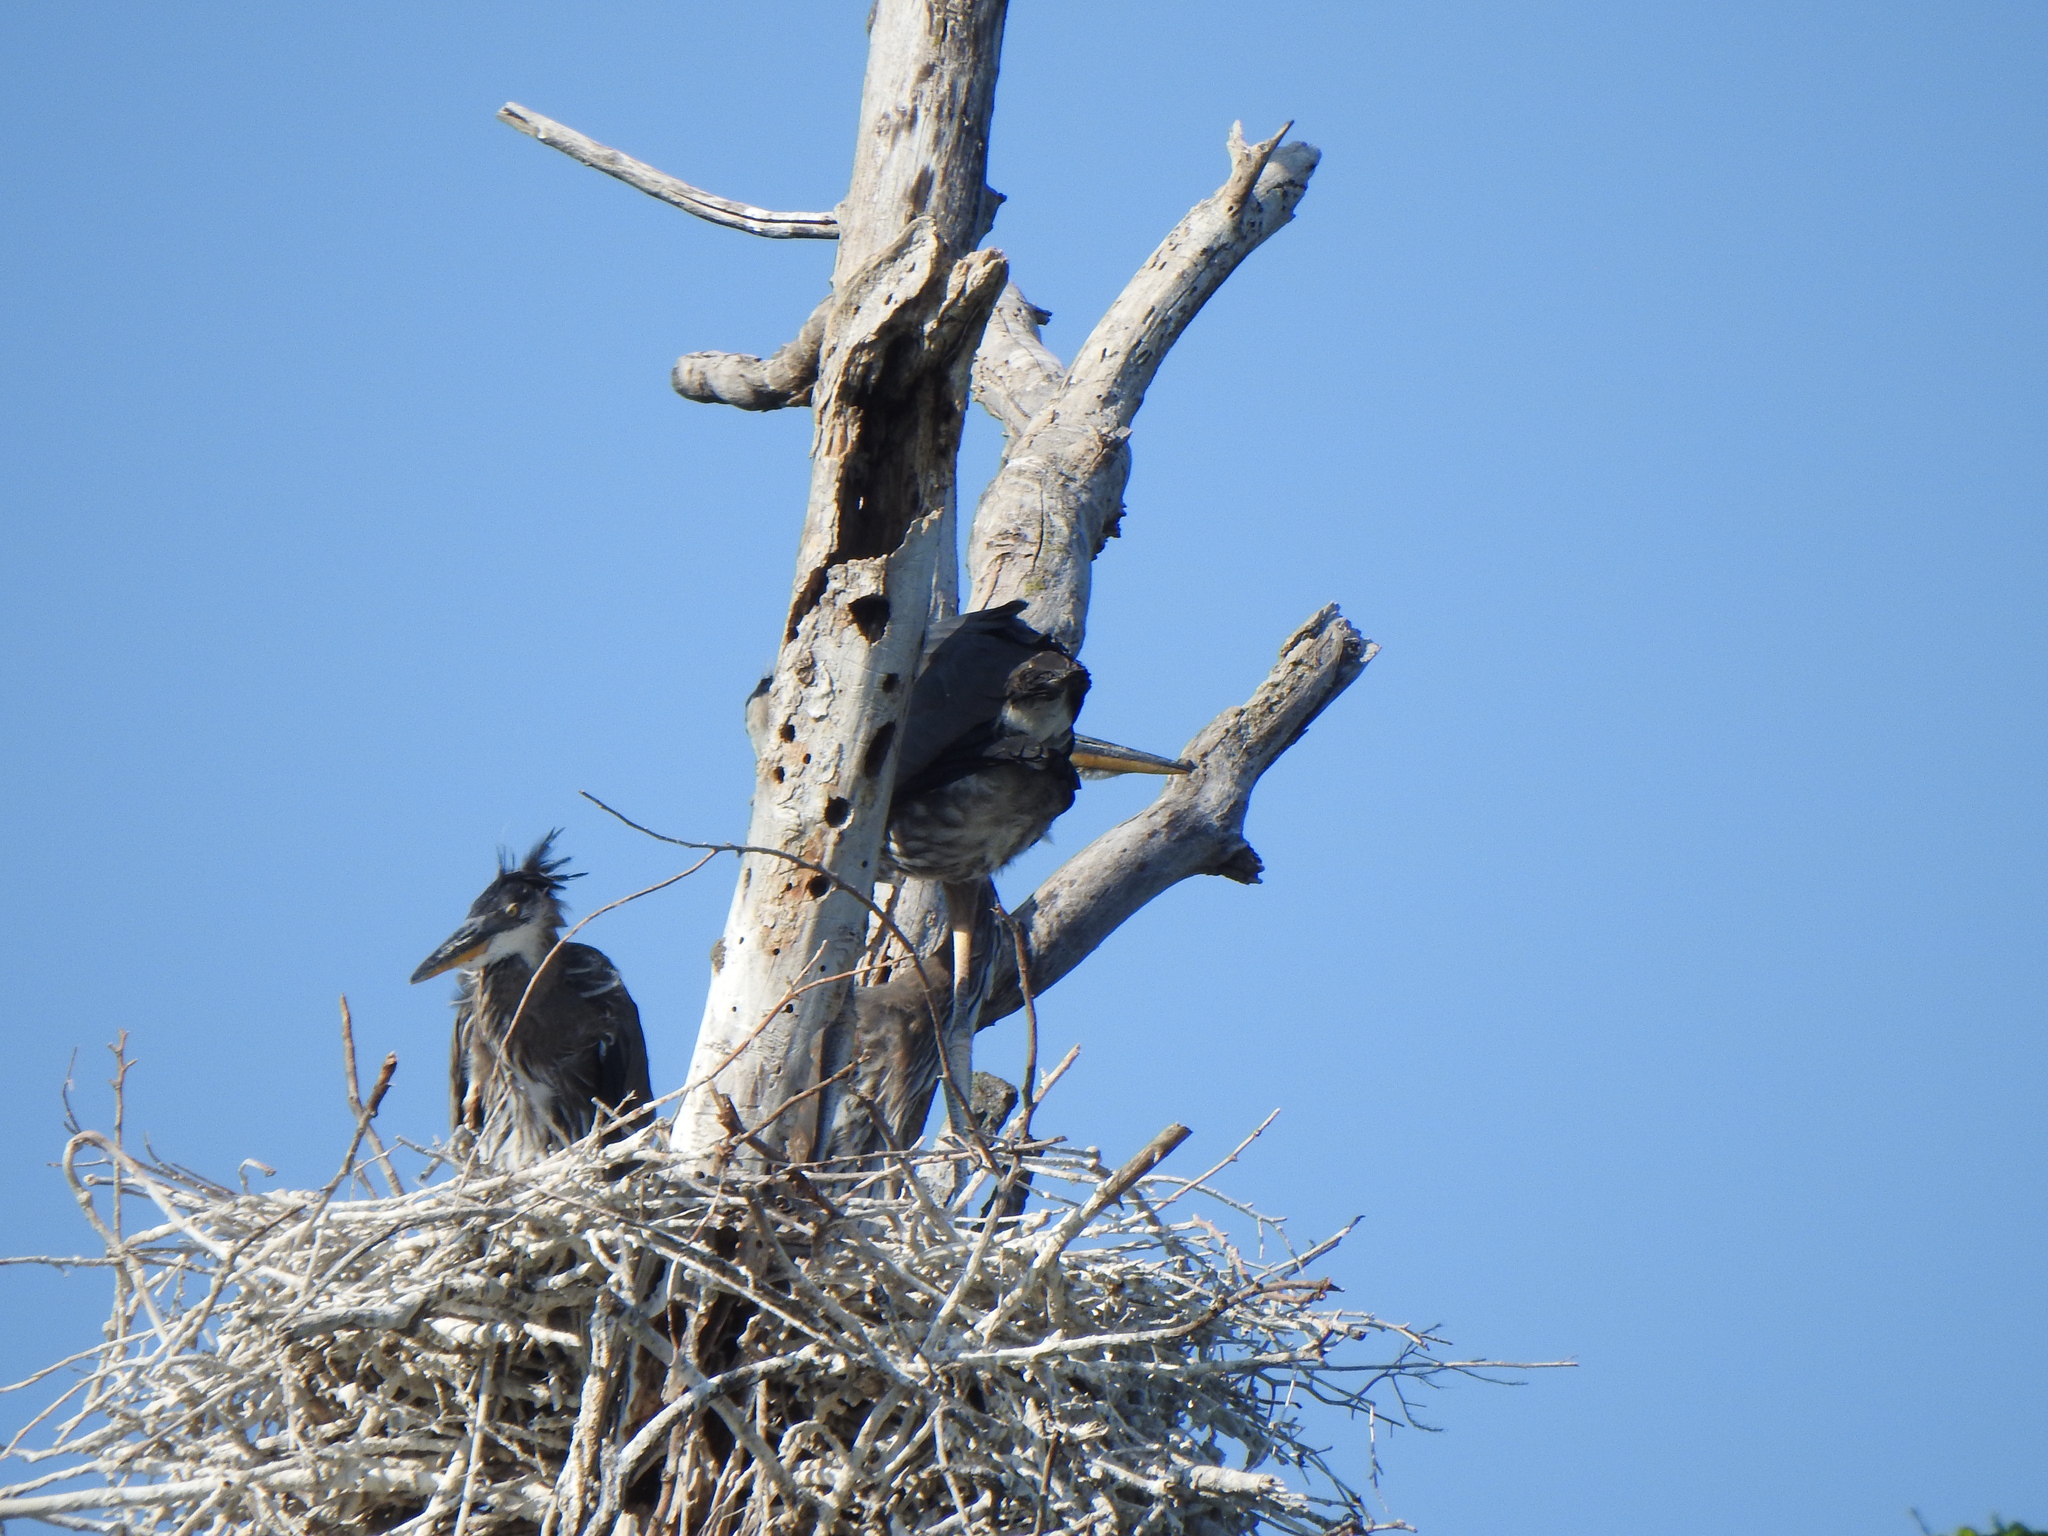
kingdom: Animalia
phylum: Chordata
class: Aves
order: Pelecaniformes
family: Ardeidae
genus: Ardea
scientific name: Ardea herodias
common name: Great blue heron
